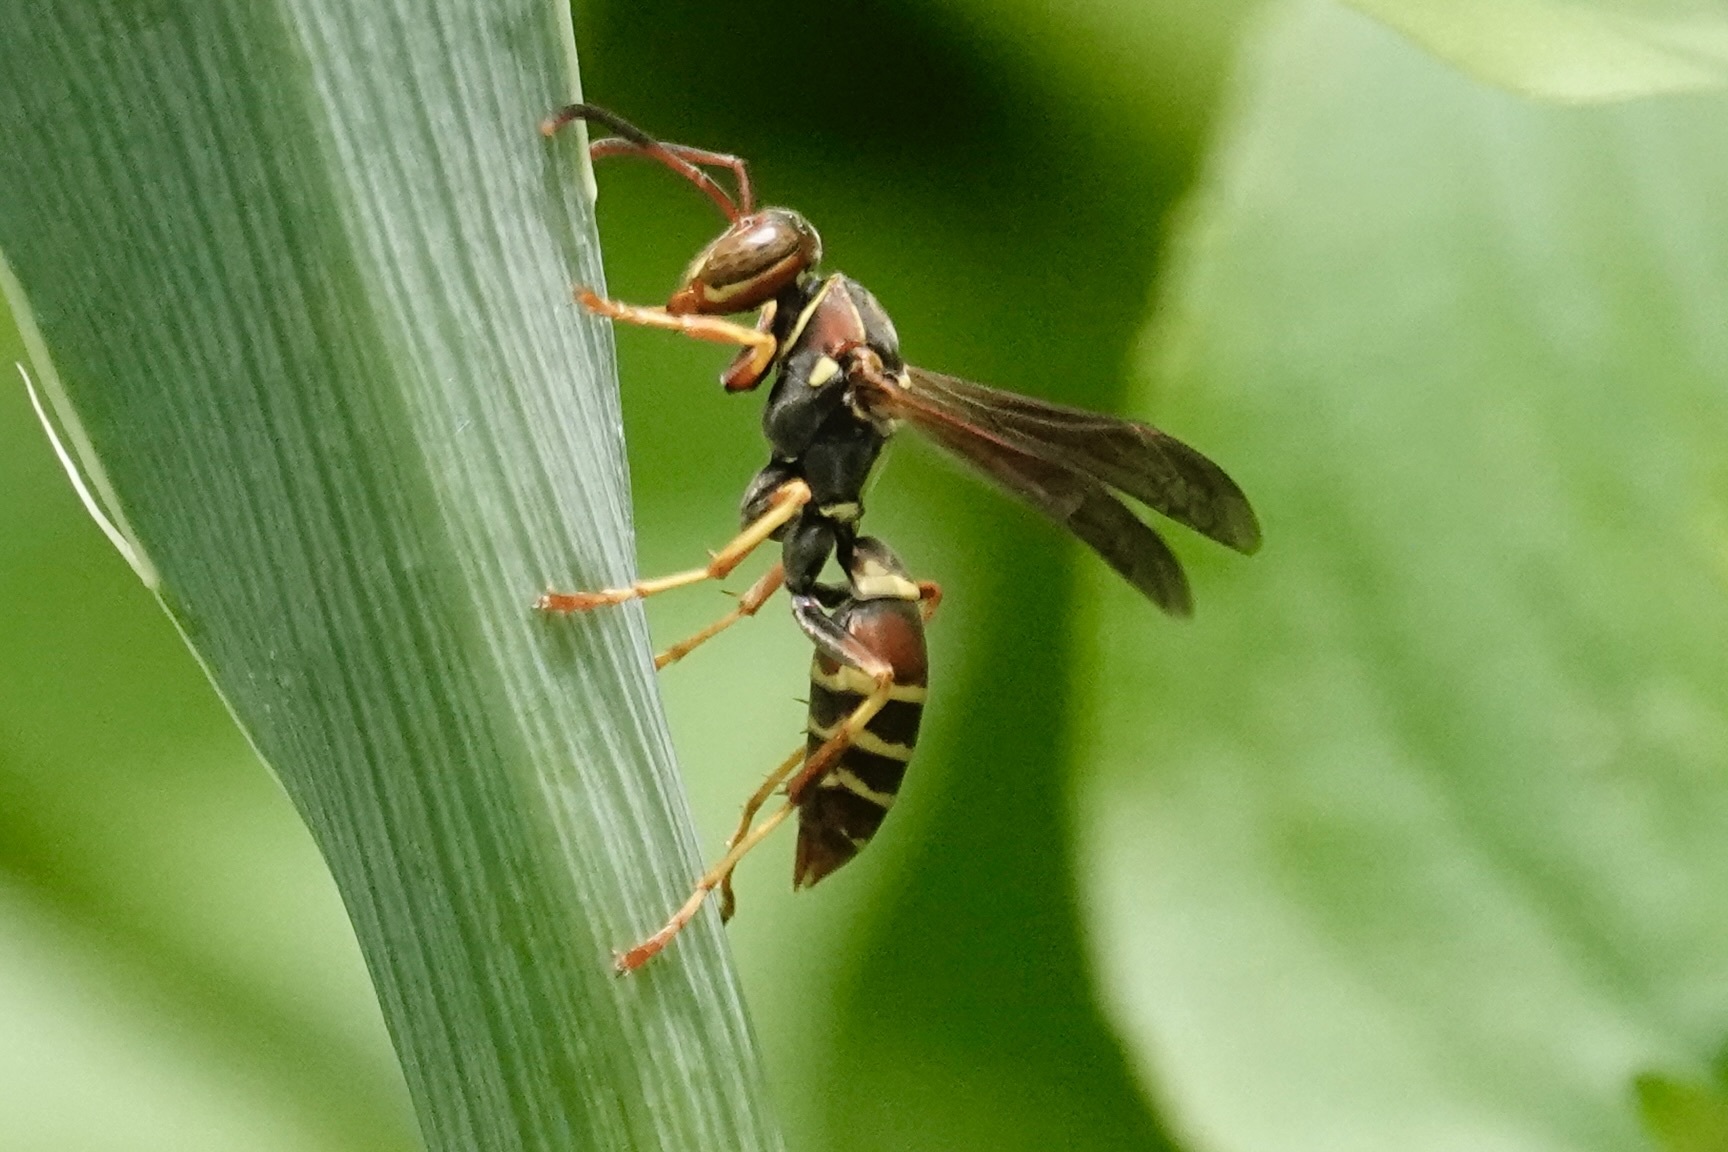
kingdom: Animalia
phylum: Arthropoda
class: Insecta
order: Hymenoptera
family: Eumenidae
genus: Polistes
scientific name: Polistes dorsalis
